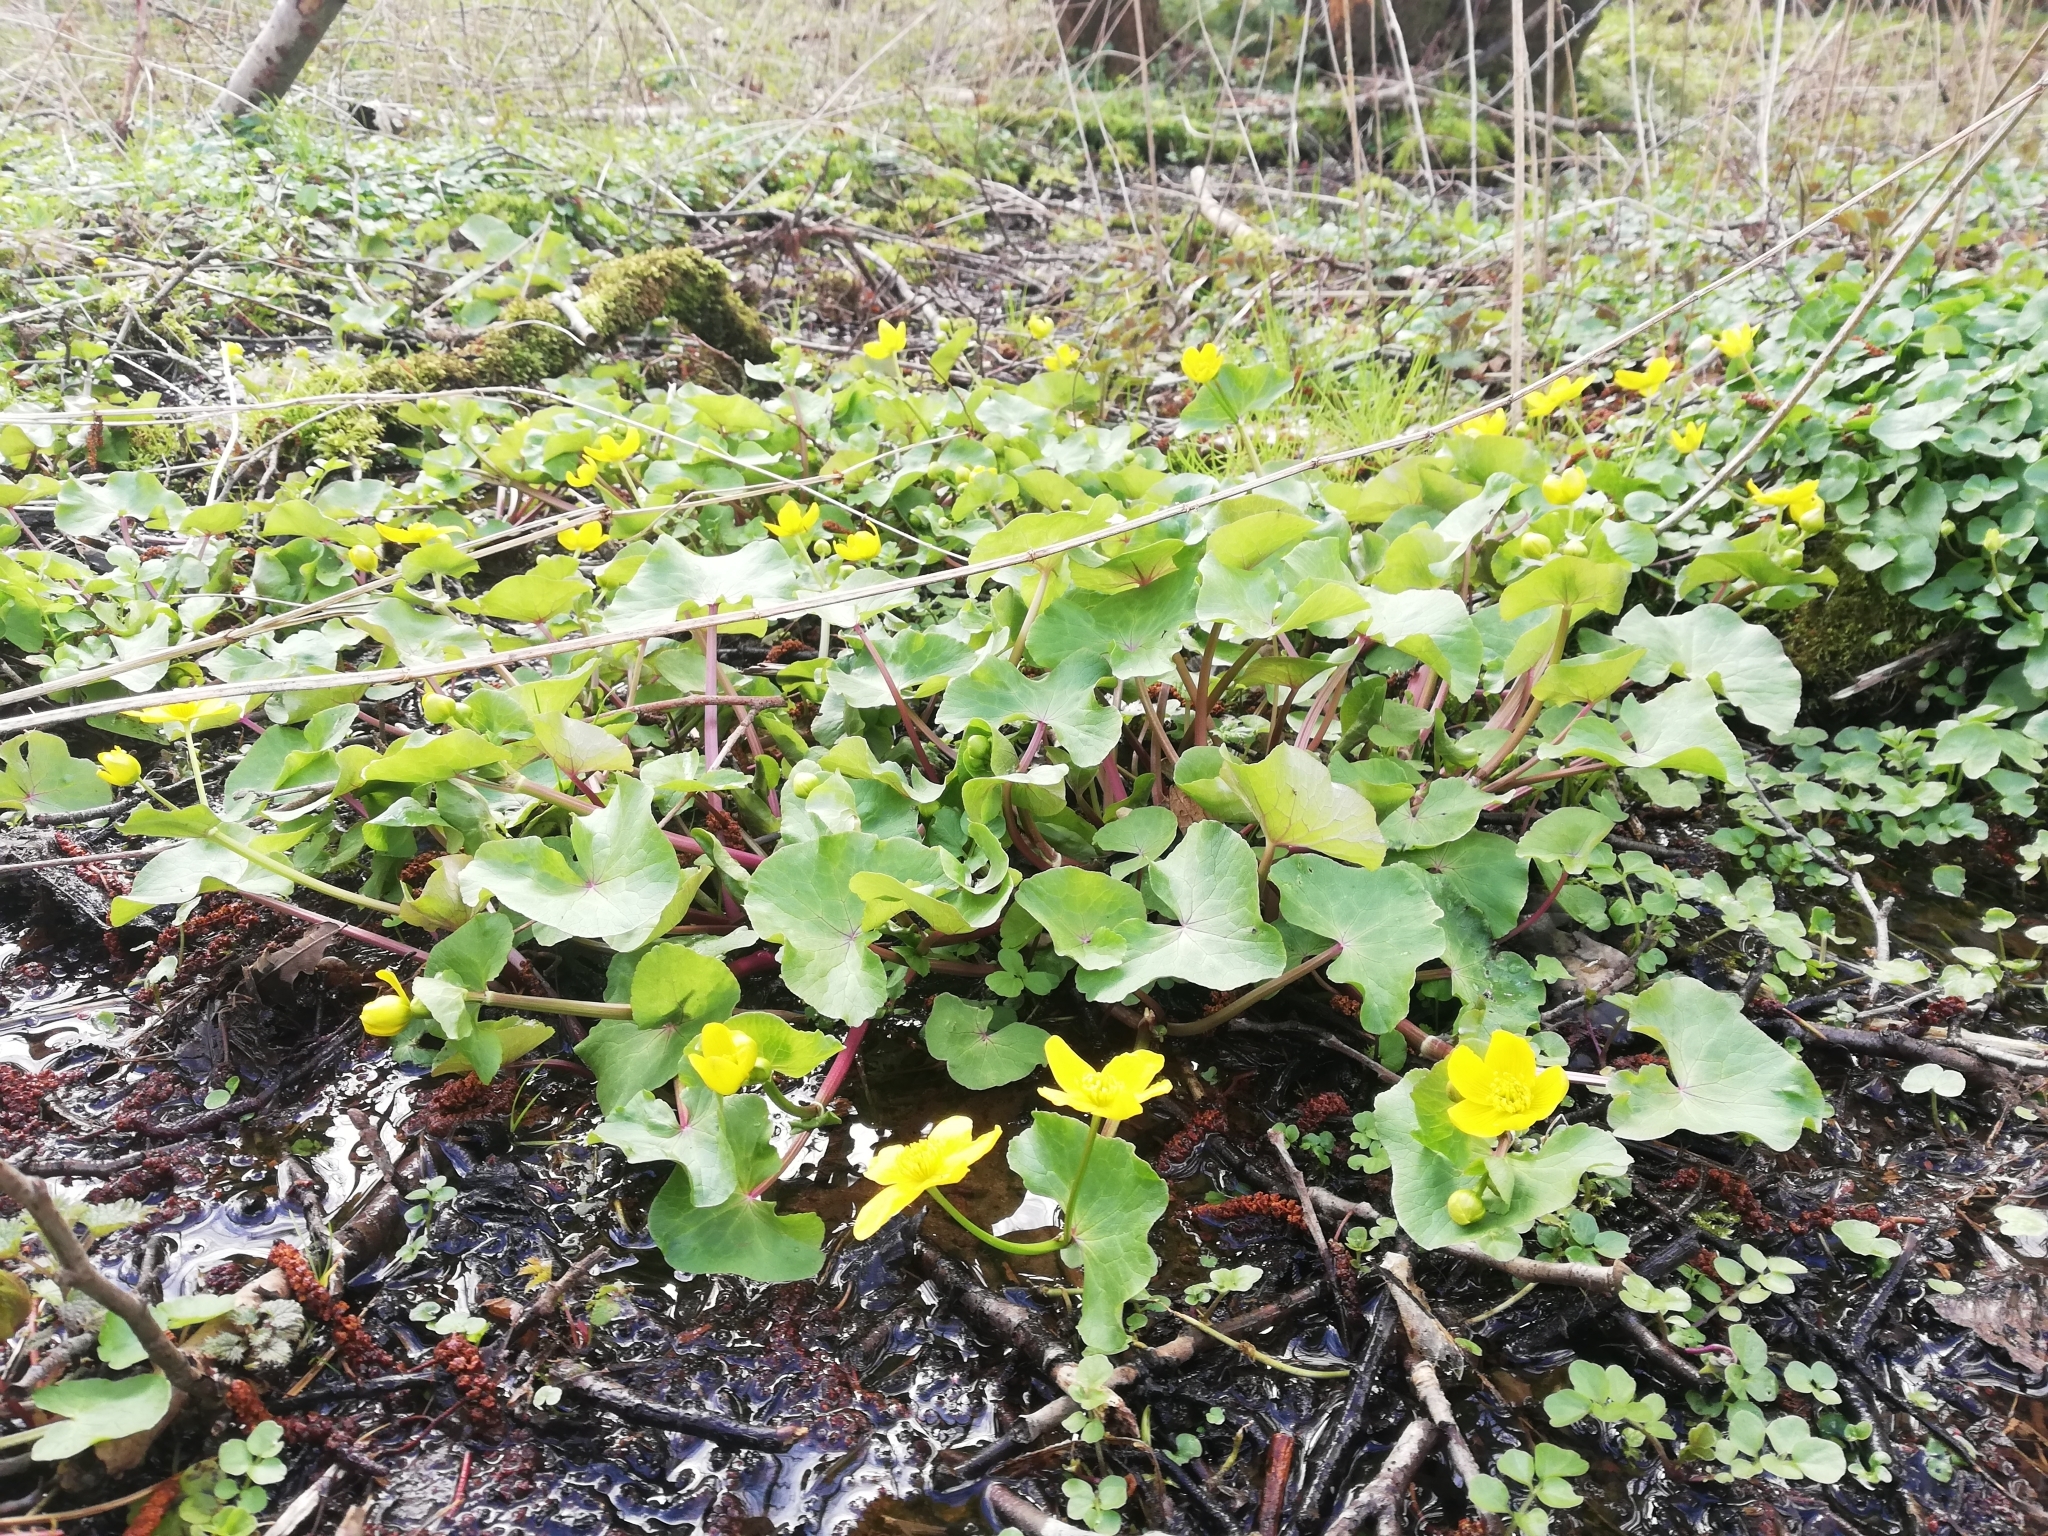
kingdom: Plantae
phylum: Tracheophyta
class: Magnoliopsida
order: Ranunculales
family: Ranunculaceae
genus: Caltha
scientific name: Caltha palustris
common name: Marsh marigold
